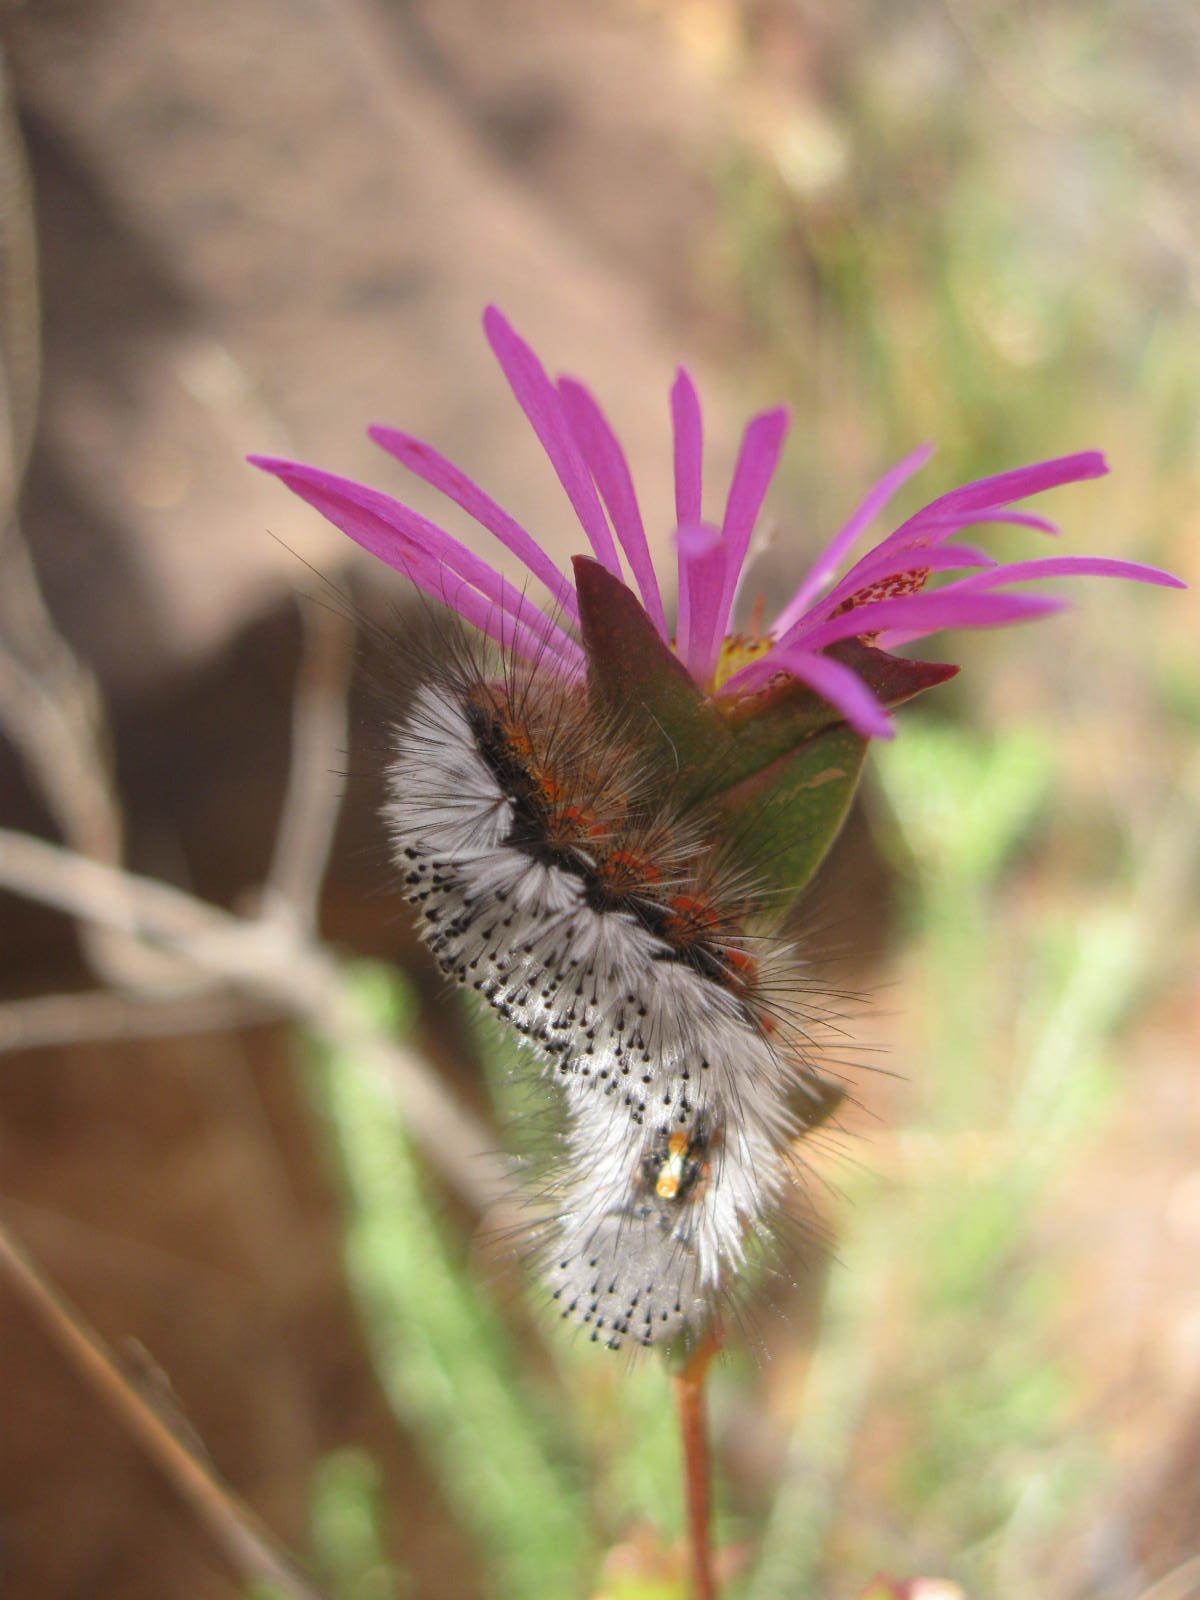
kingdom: Animalia
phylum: Arthropoda
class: Insecta
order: Lepidoptera
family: Erebidae
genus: Orgyia
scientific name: Orgyia tricolor
